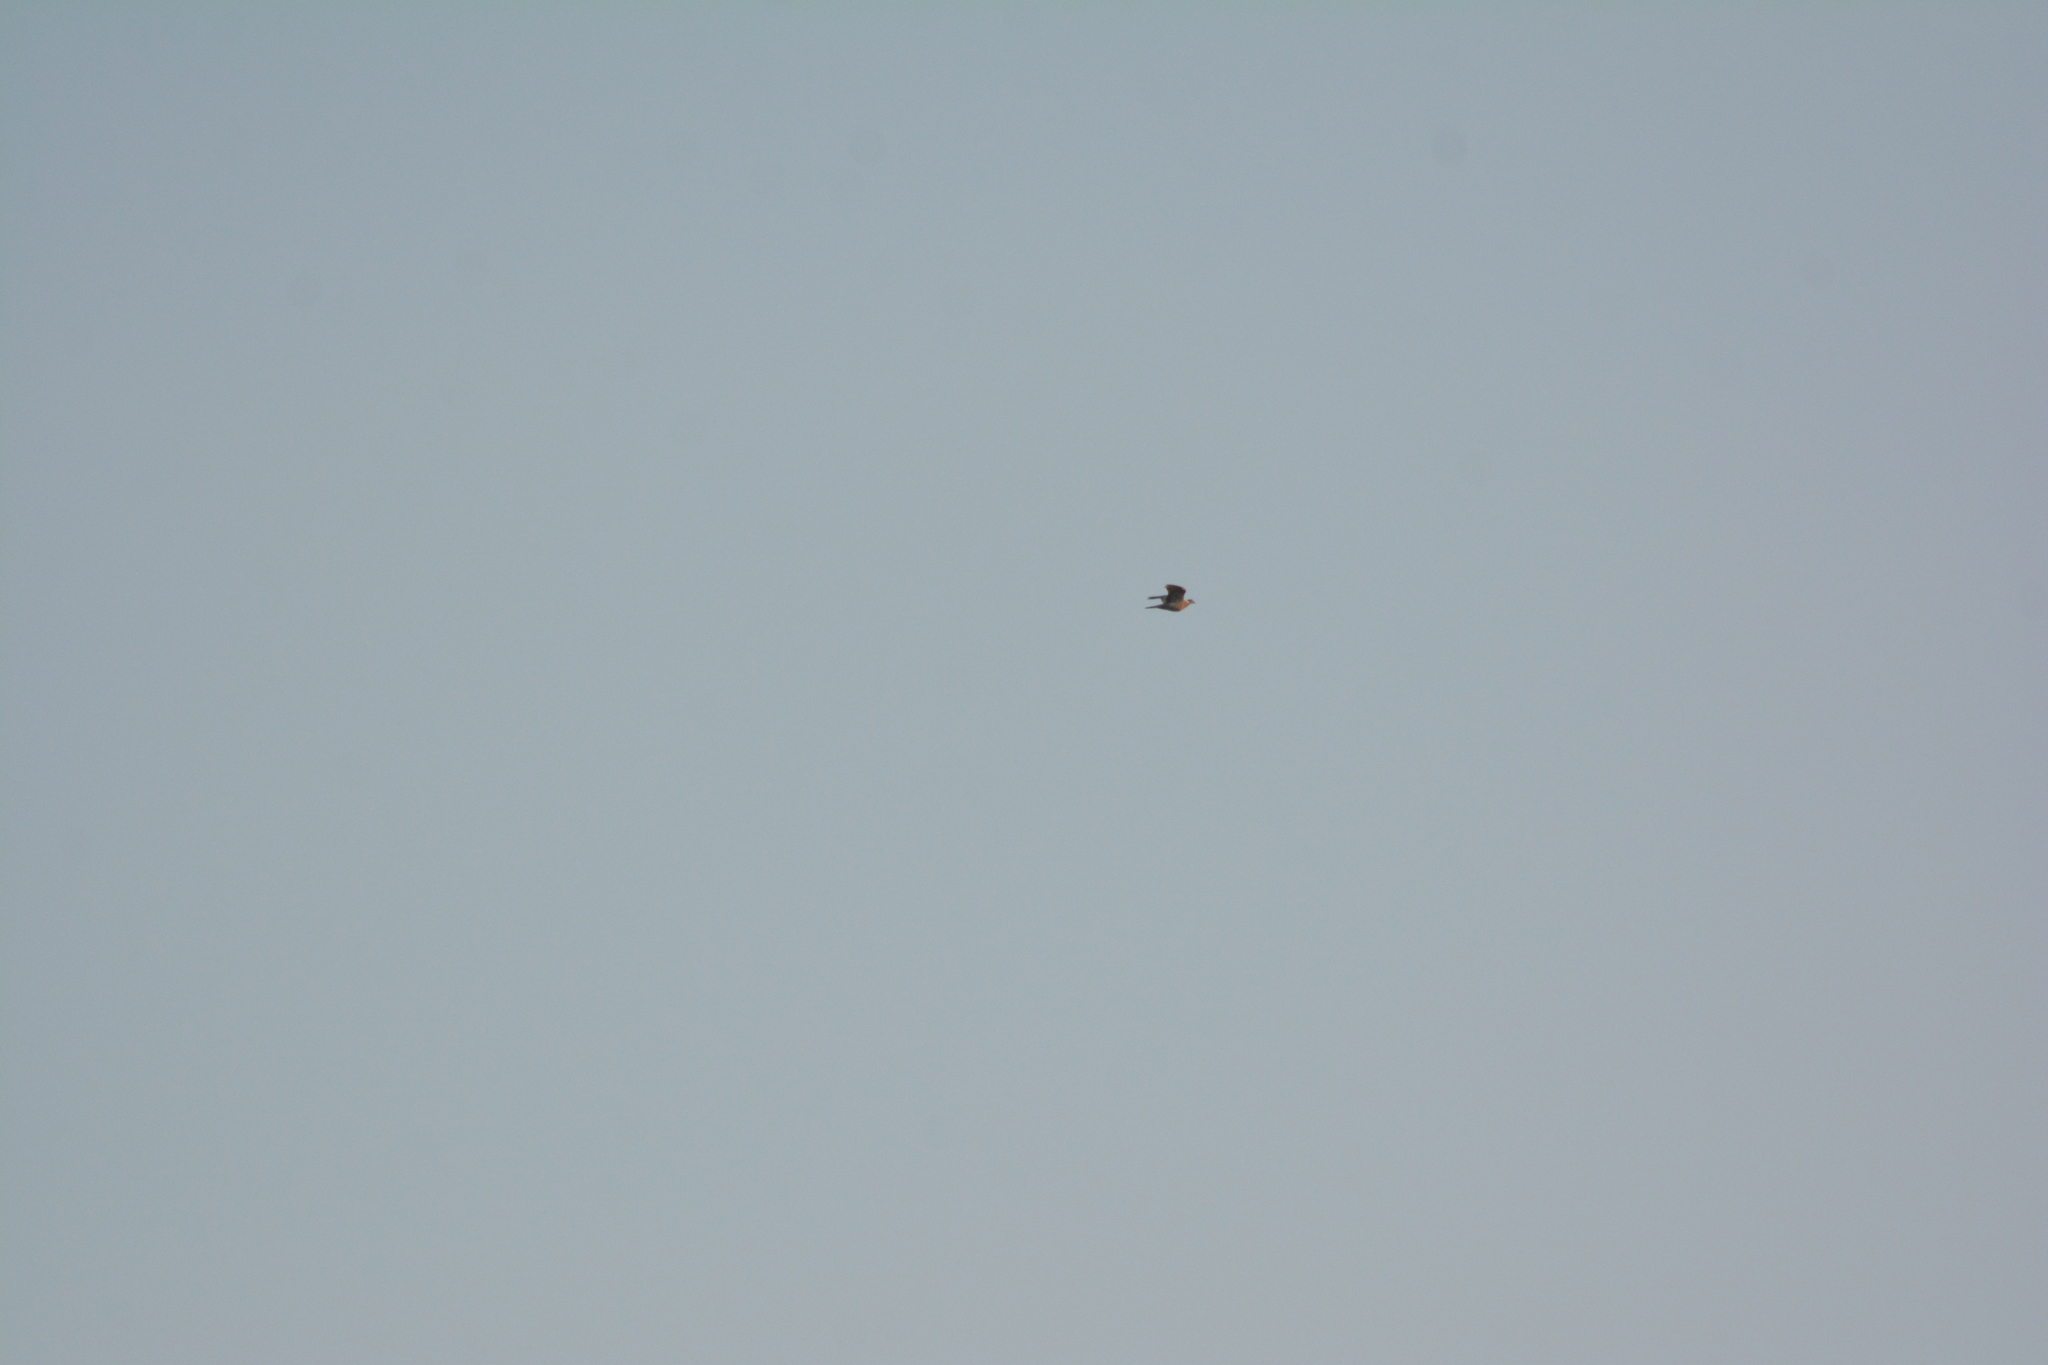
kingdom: Animalia
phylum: Chordata
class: Aves
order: Columbiformes
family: Columbidae
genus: Columba
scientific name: Columba palumbus
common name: Common wood pigeon
